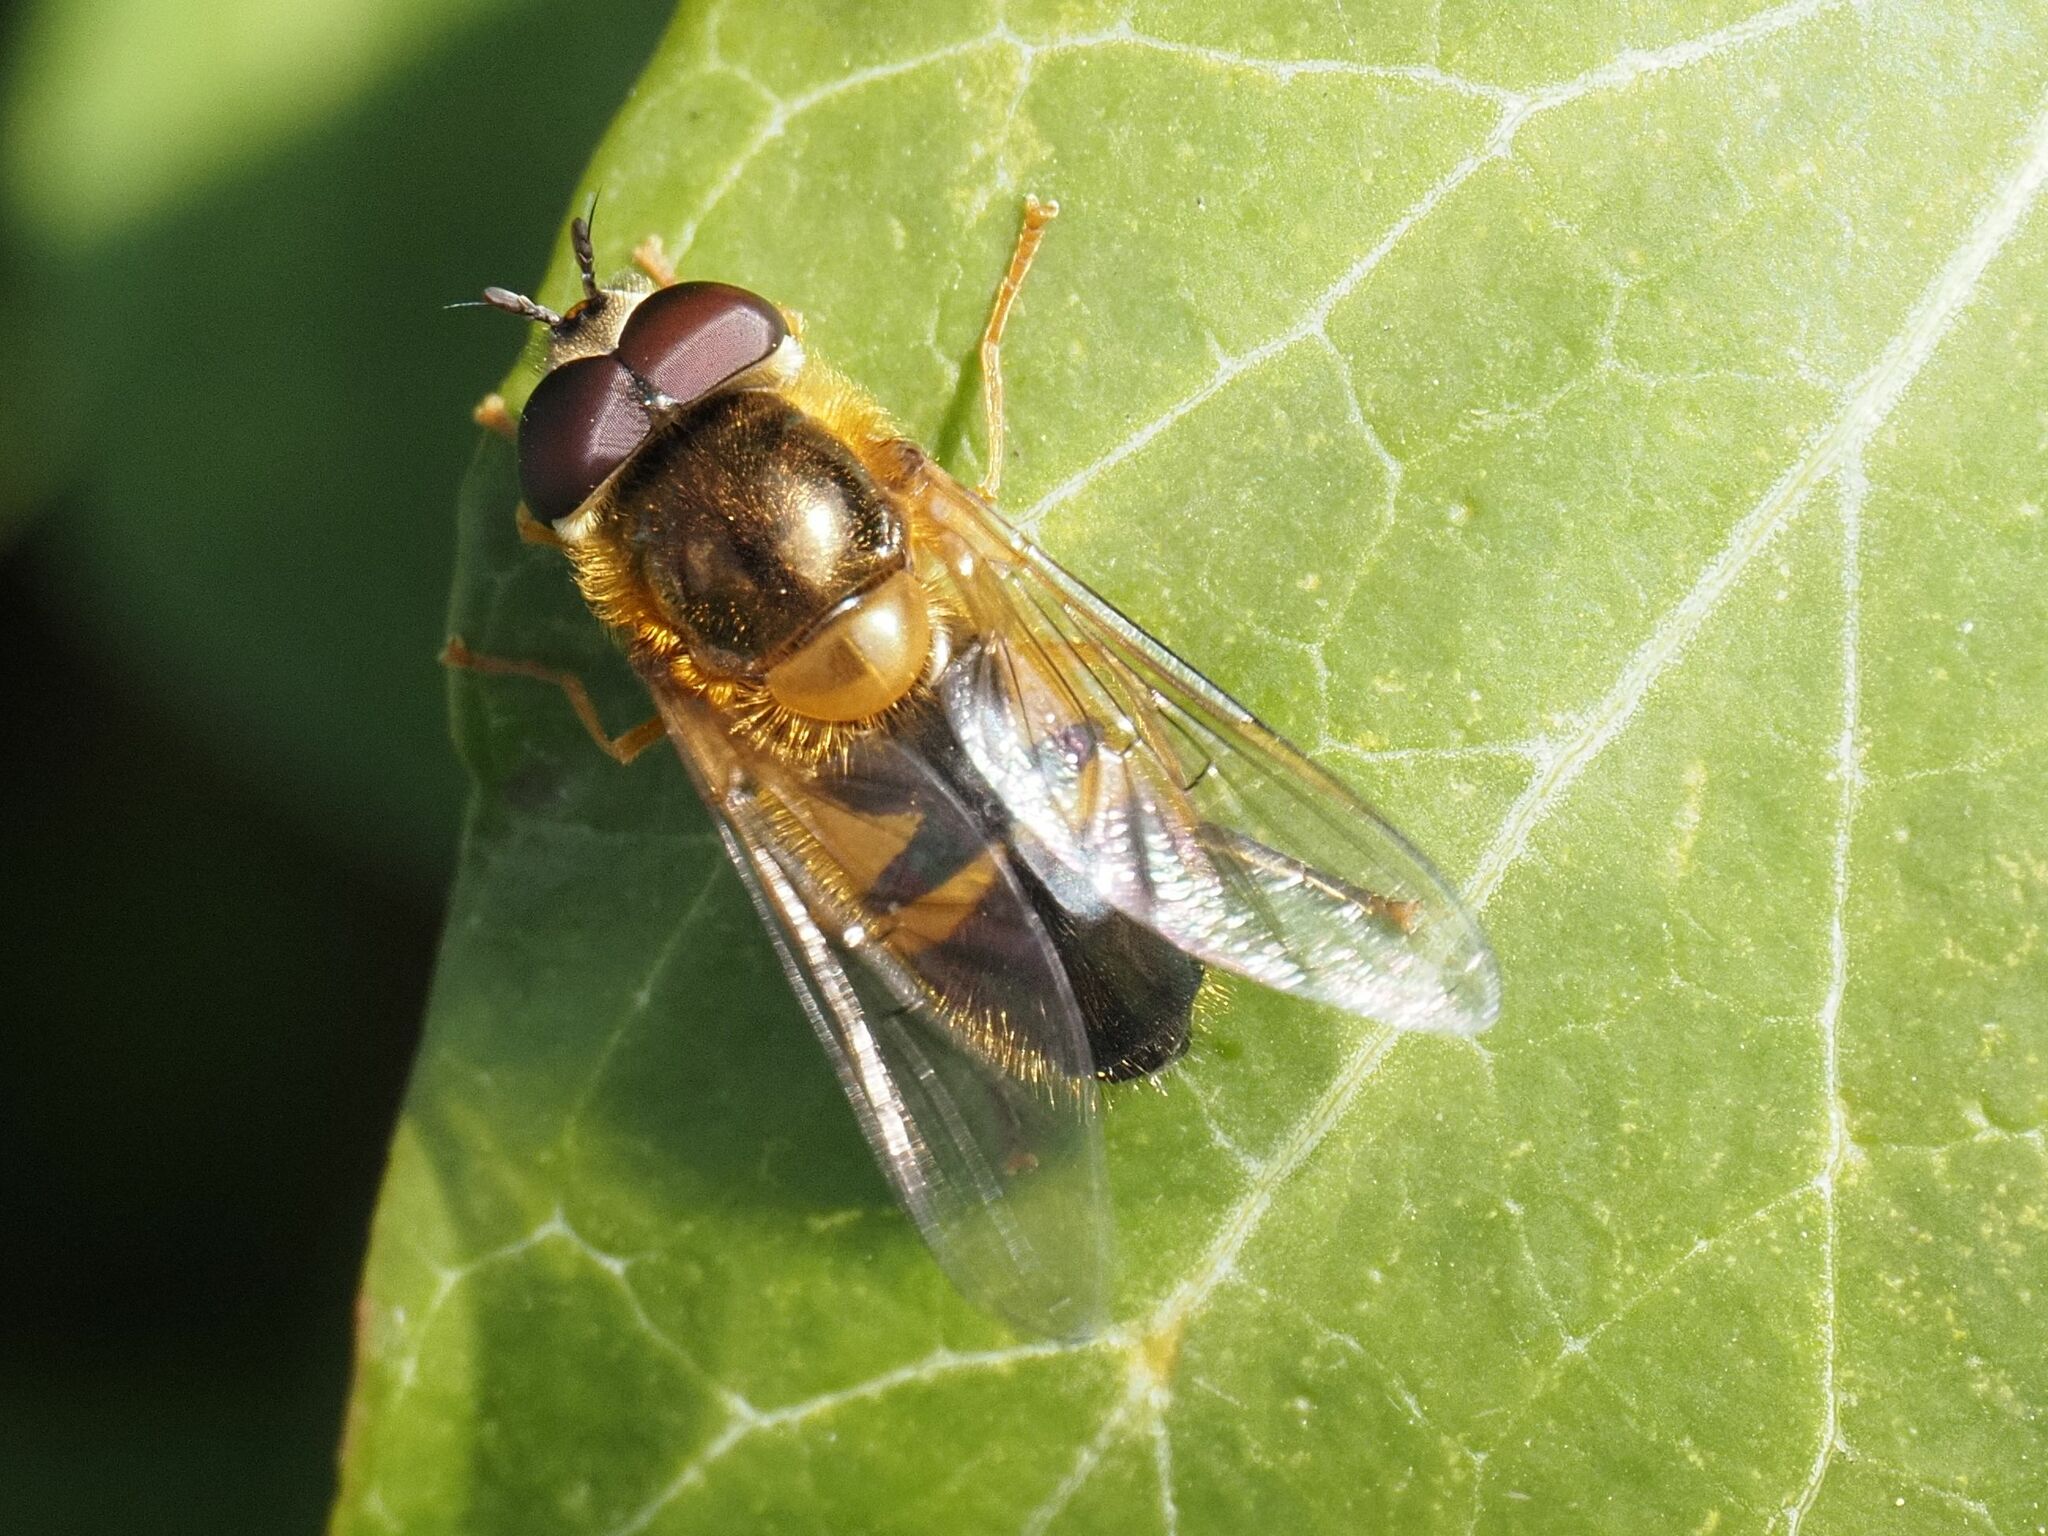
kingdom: Animalia
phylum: Arthropoda
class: Insecta
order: Diptera
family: Syrphidae
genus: Epistrophe
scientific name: Epistrophe eligans
